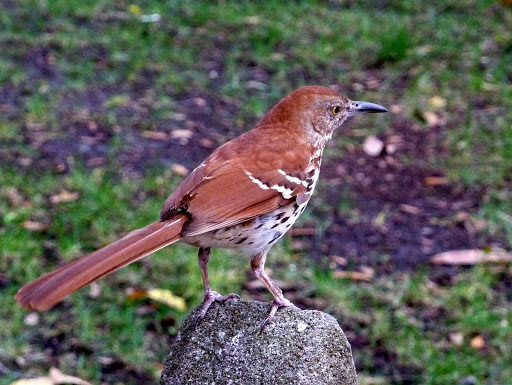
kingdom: Animalia
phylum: Chordata
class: Aves
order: Passeriformes
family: Mimidae
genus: Toxostoma
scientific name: Toxostoma rufum
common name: Brown thrasher
